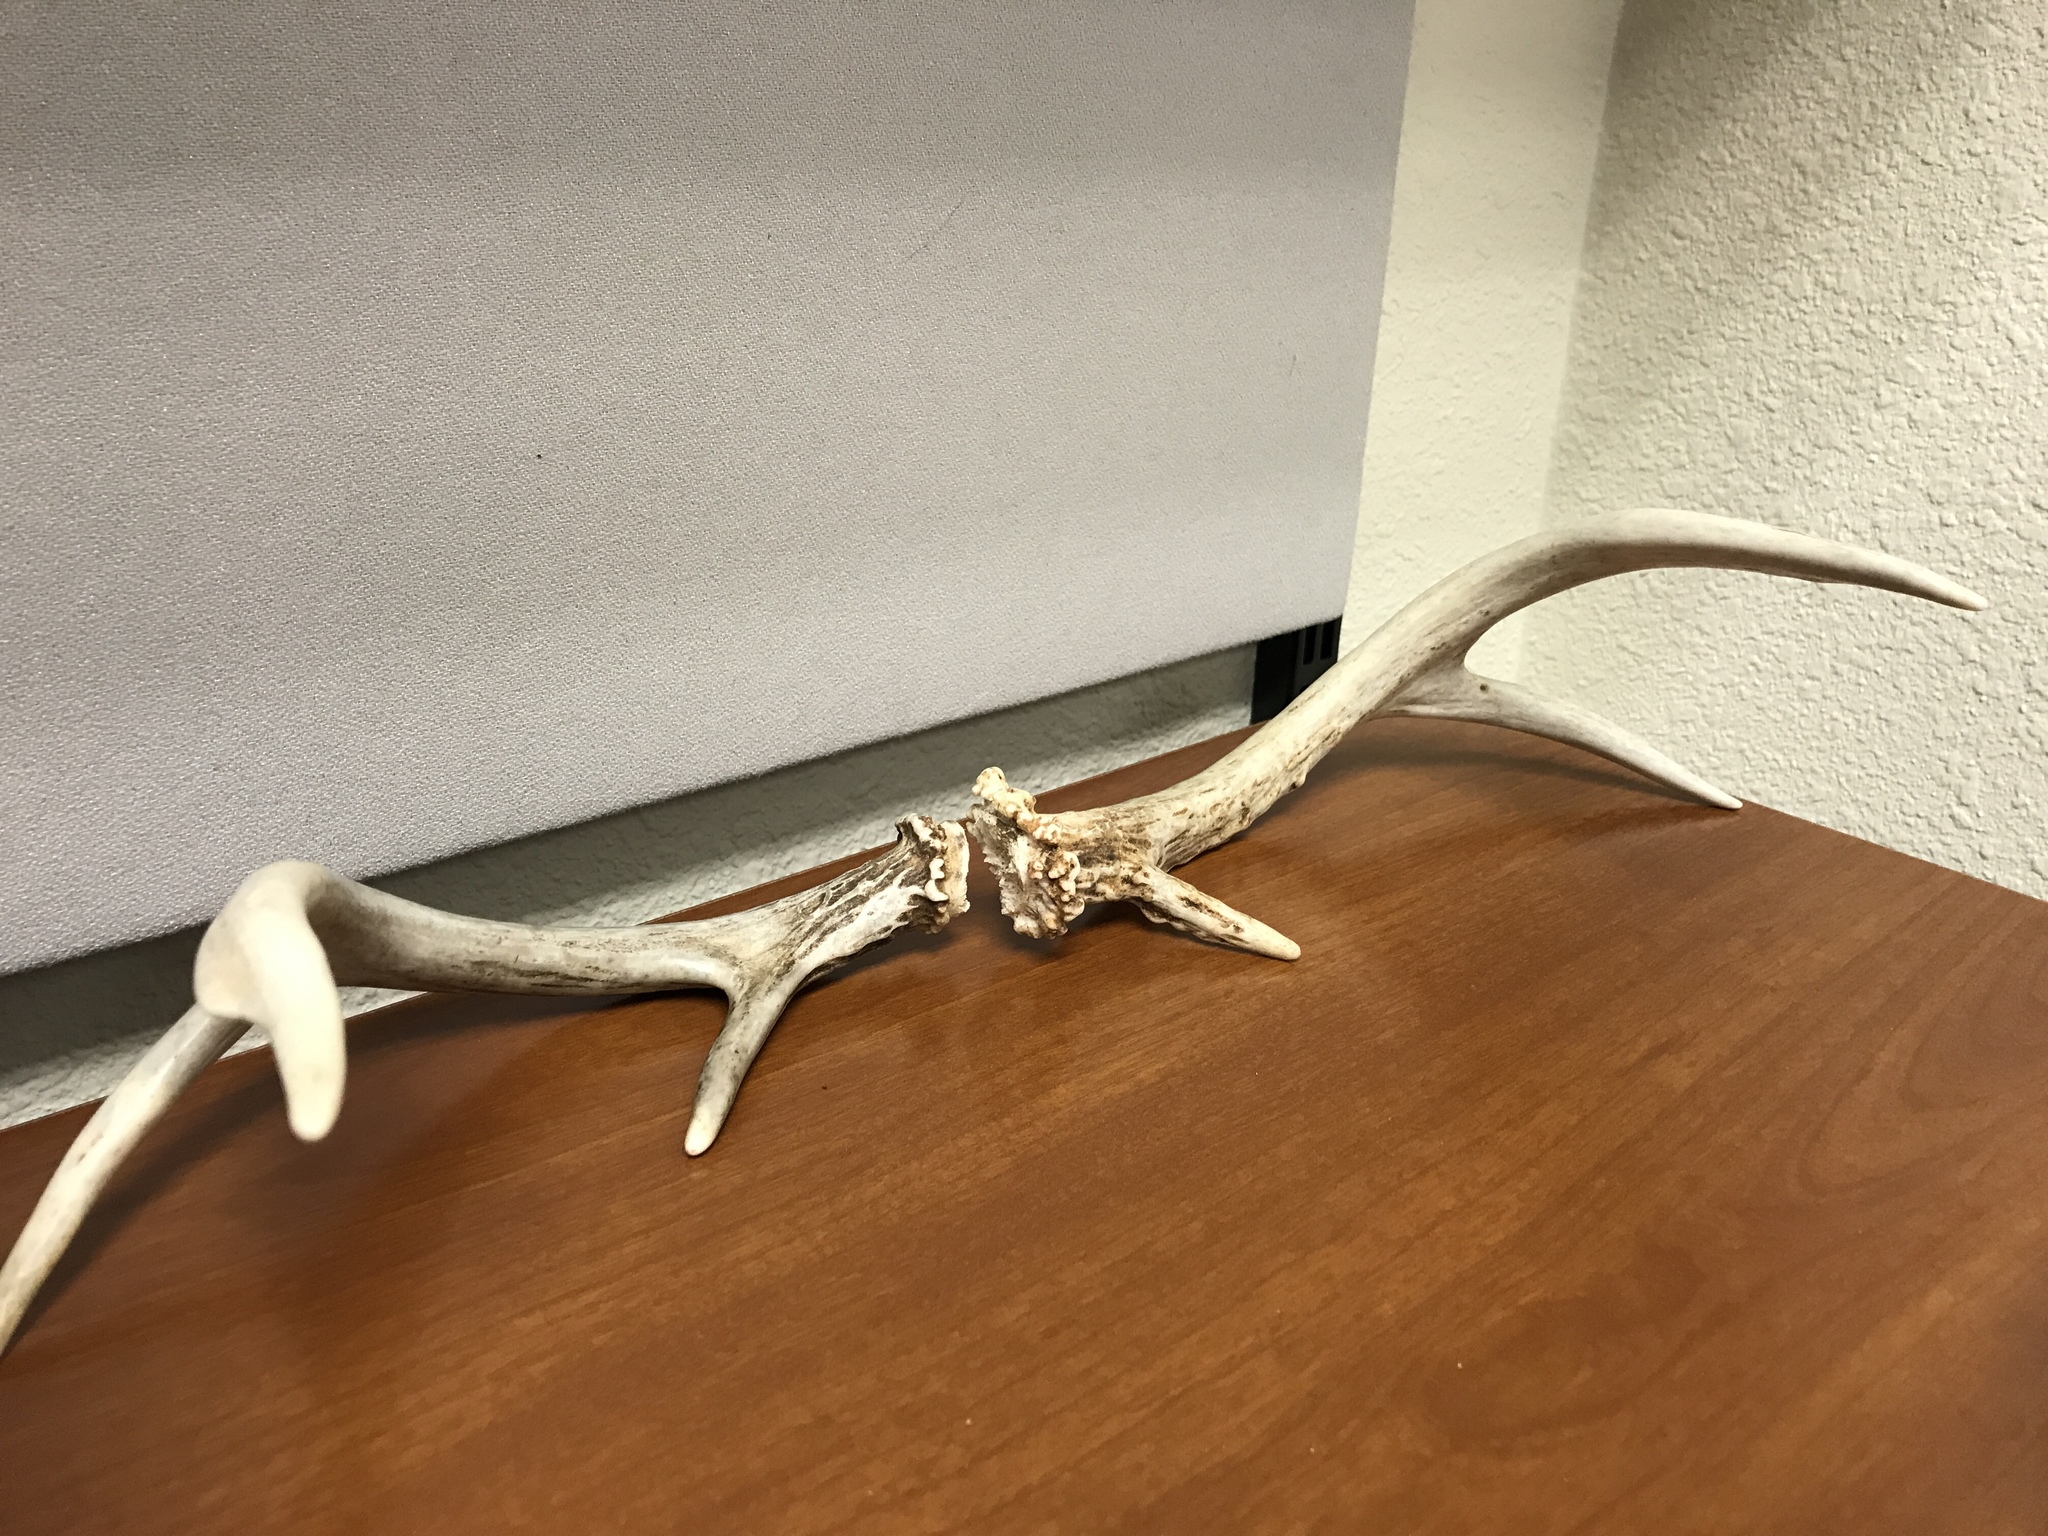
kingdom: Animalia
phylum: Chordata
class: Mammalia
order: Artiodactyla
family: Cervidae
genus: Odocoileus
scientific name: Odocoileus virginianus
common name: White-tailed deer
